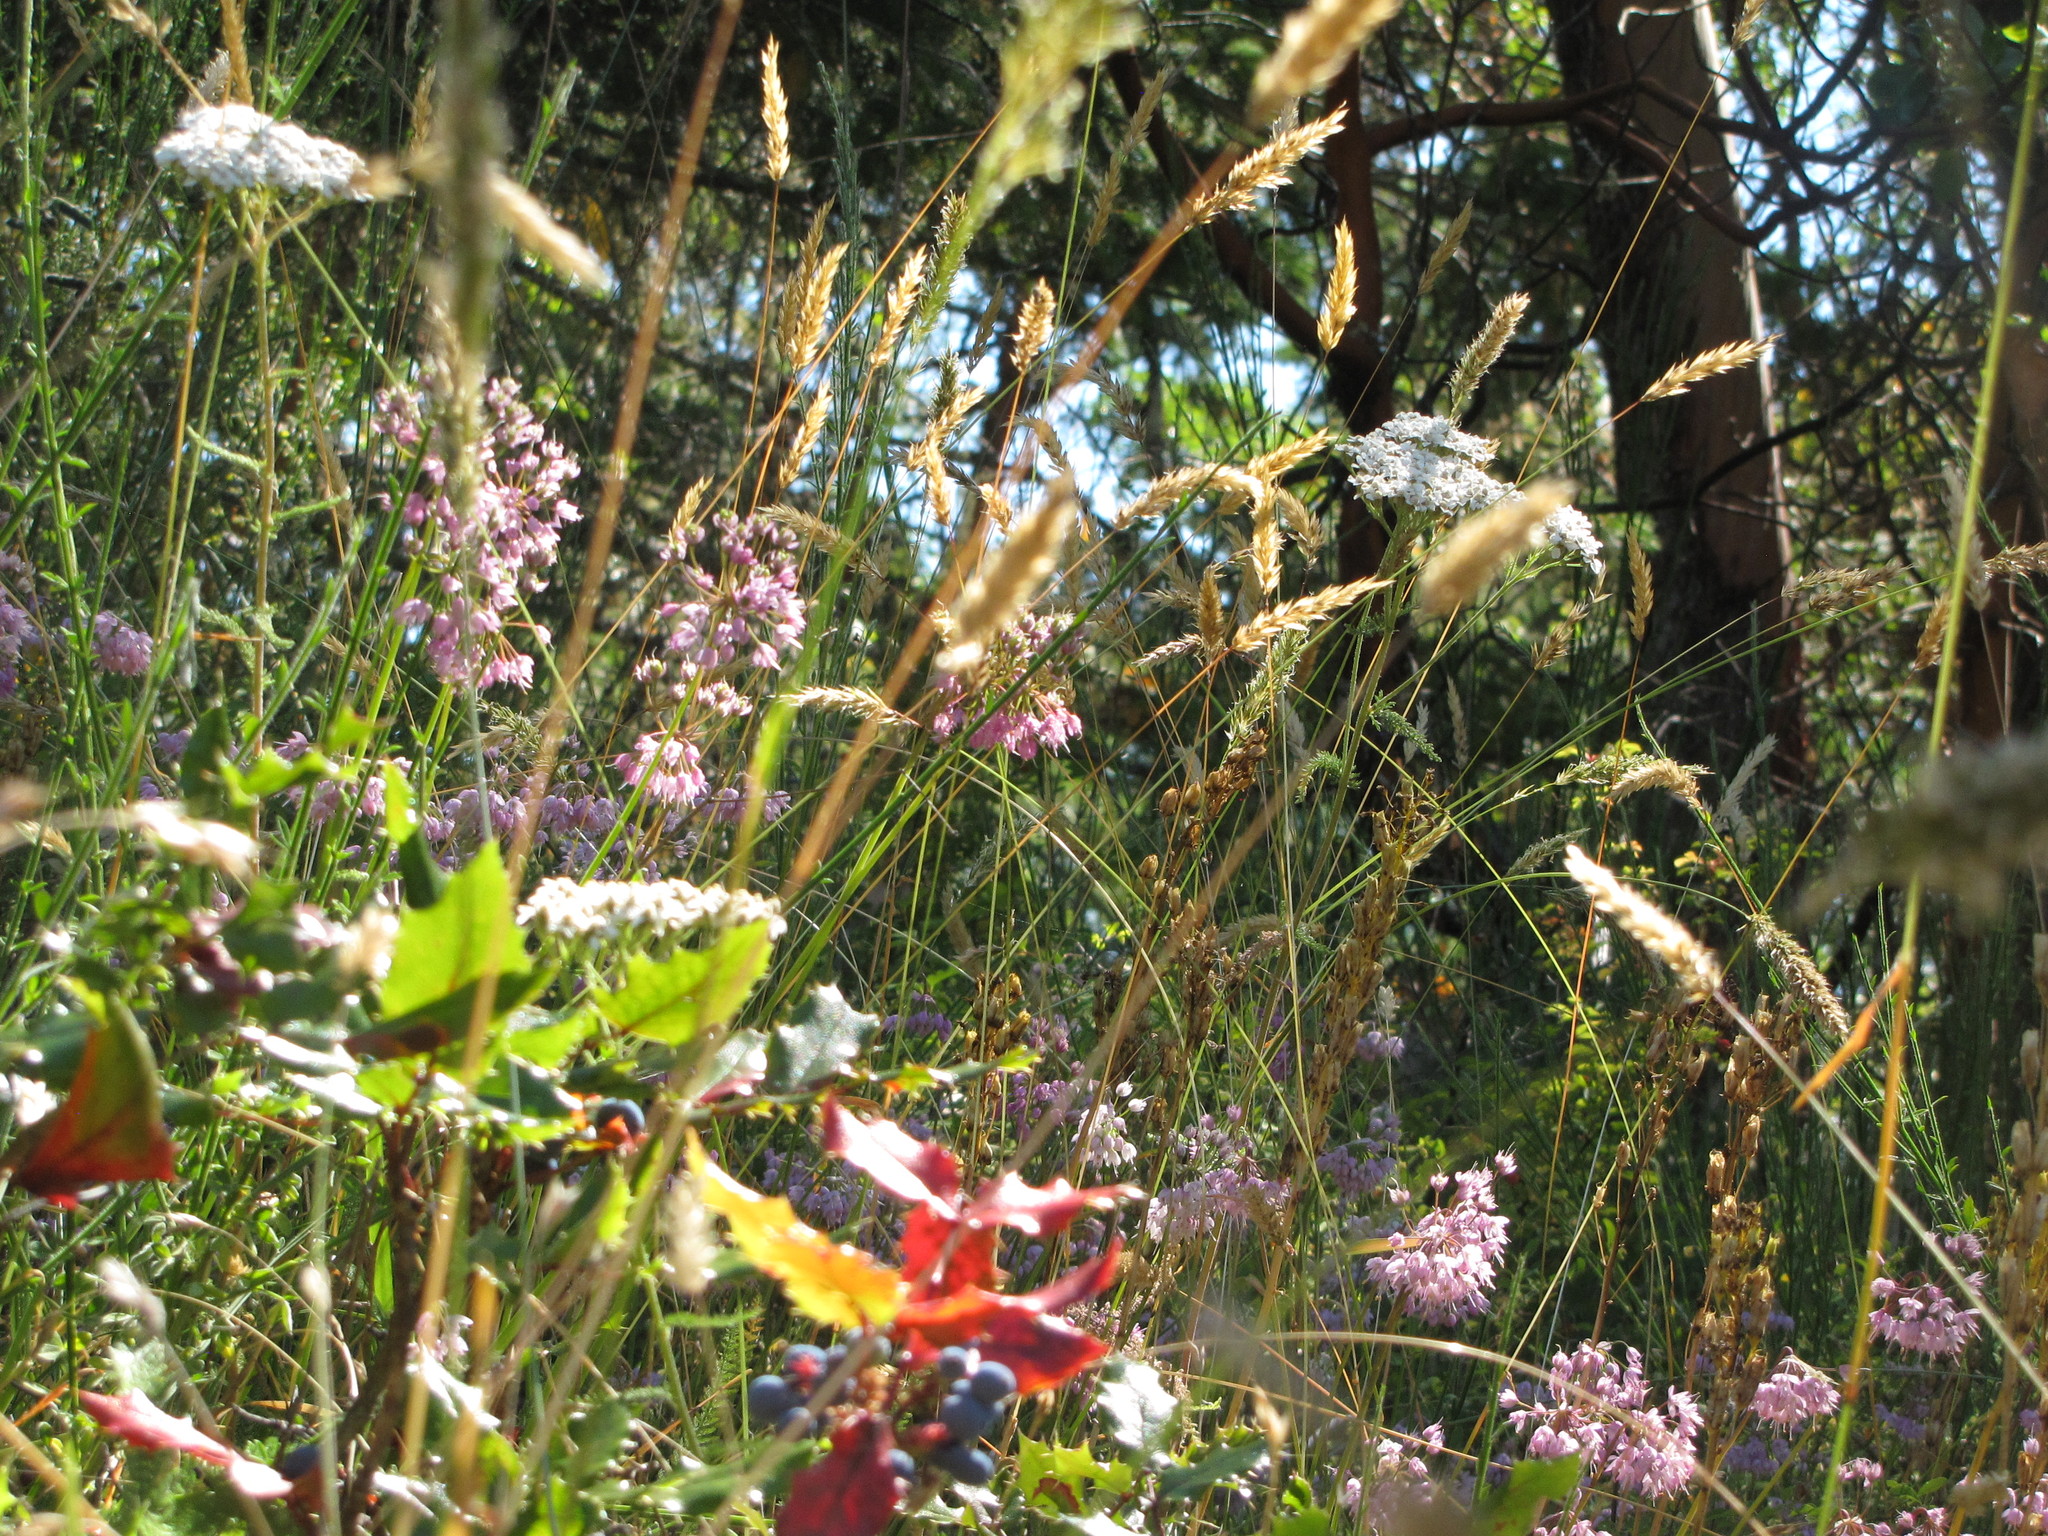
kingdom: Plantae
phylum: Tracheophyta
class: Magnoliopsida
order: Ranunculales
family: Berberidaceae
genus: Mahonia
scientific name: Mahonia aquifolium
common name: Oregon-grape
